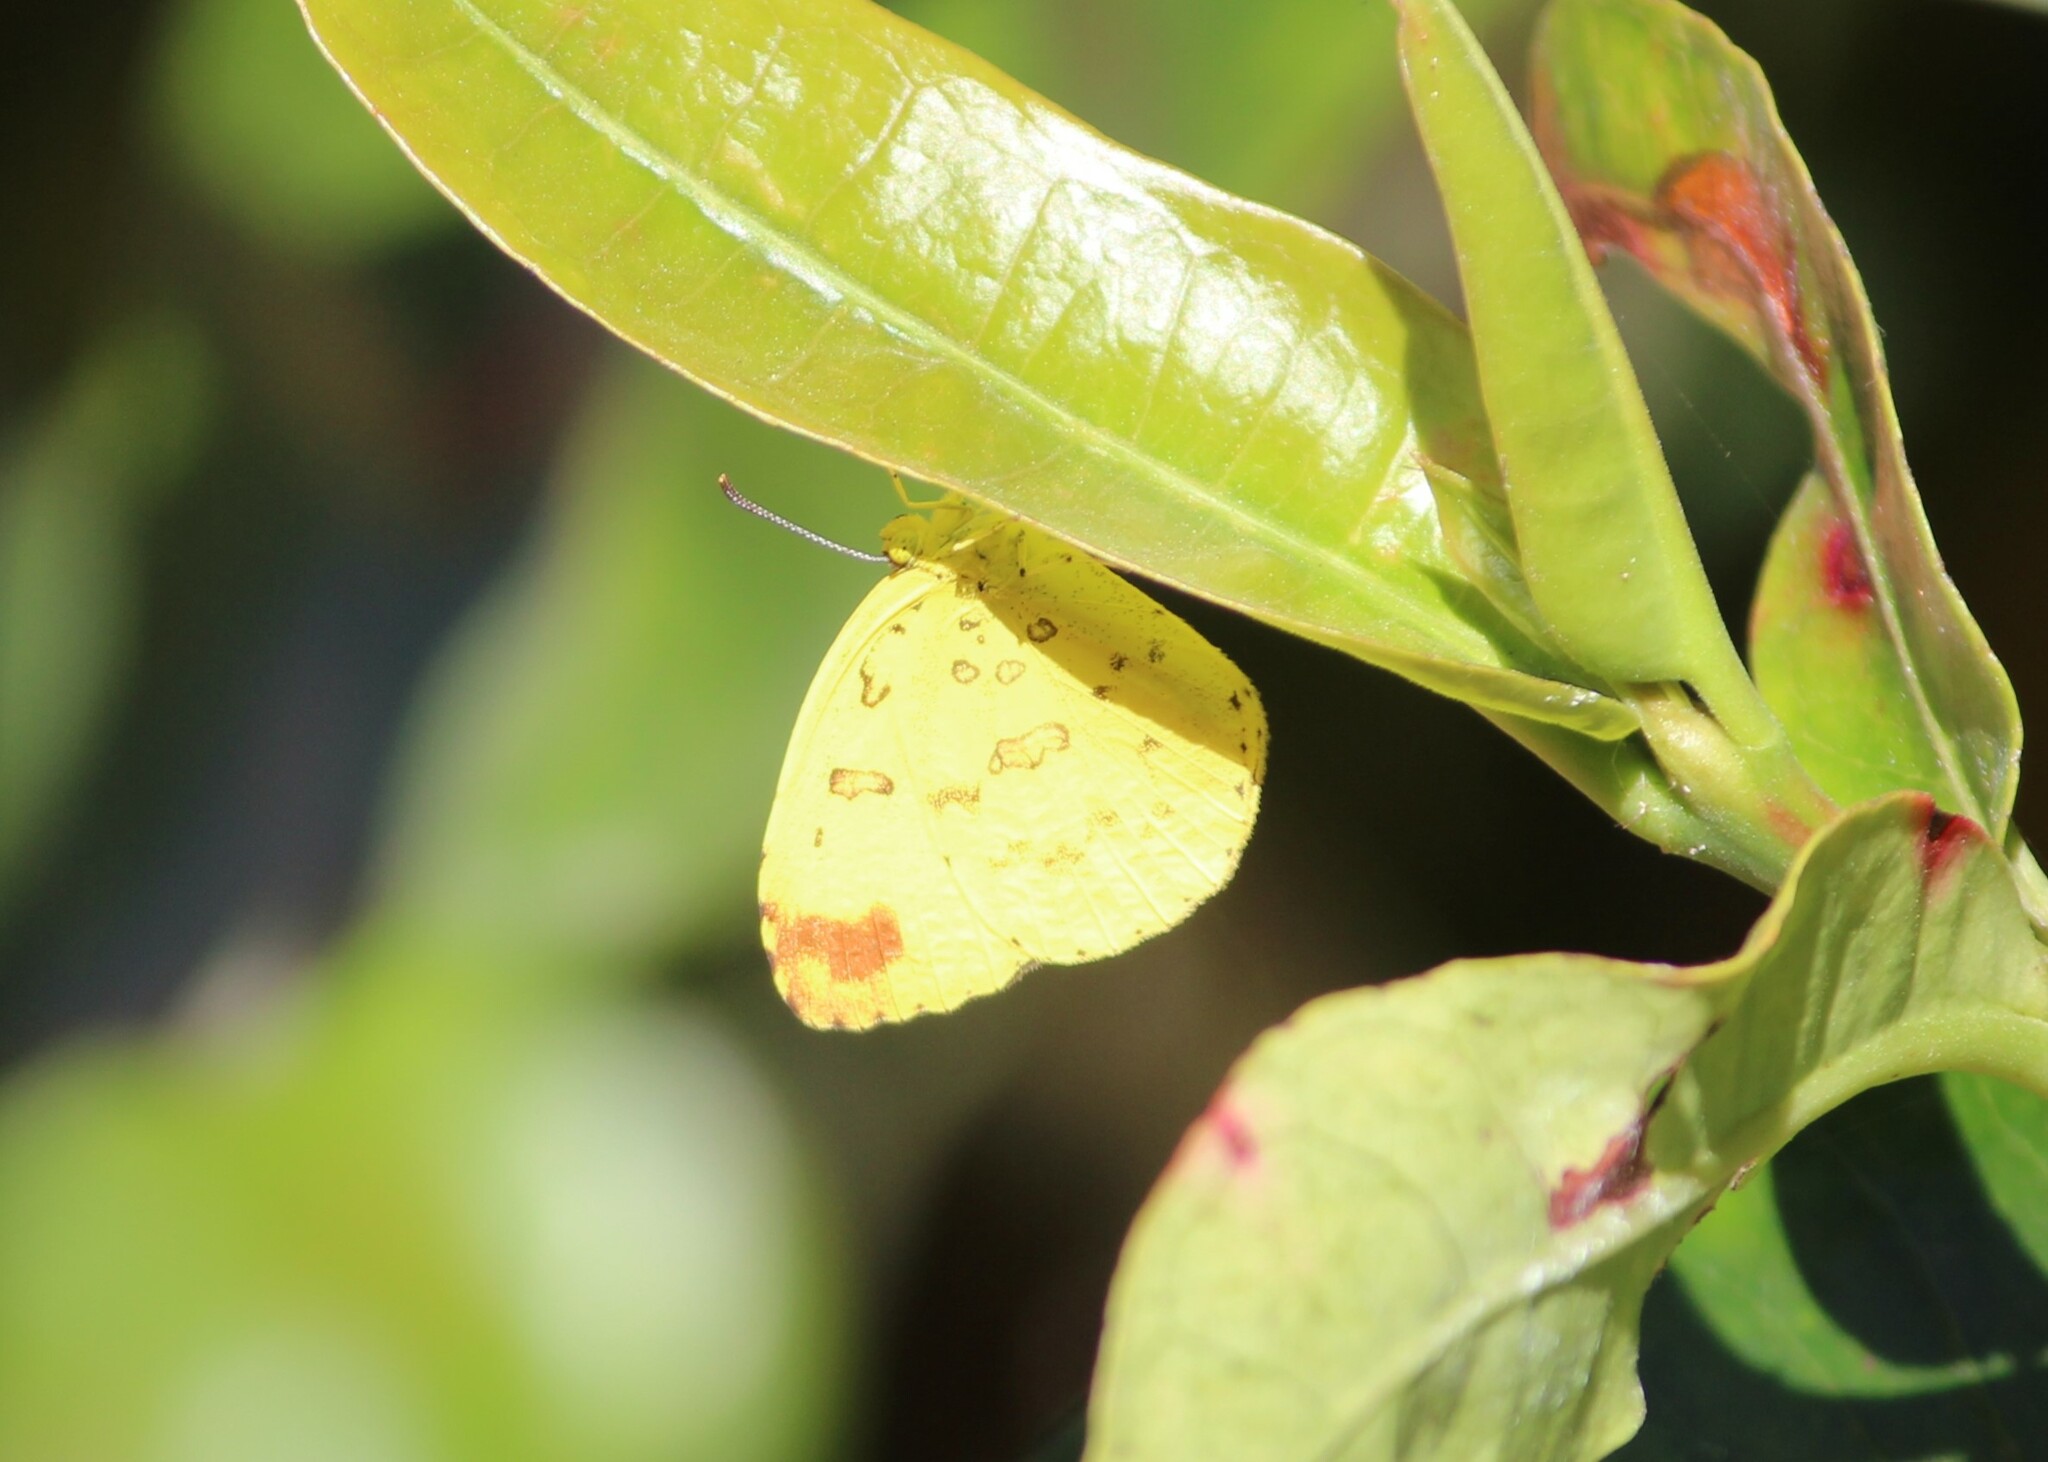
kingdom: Animalia
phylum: Arthropoda
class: Insecta
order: Lepidoptera
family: Pieridae
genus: Eurema
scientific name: Eurema blanda
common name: Three-spot grass yellow
